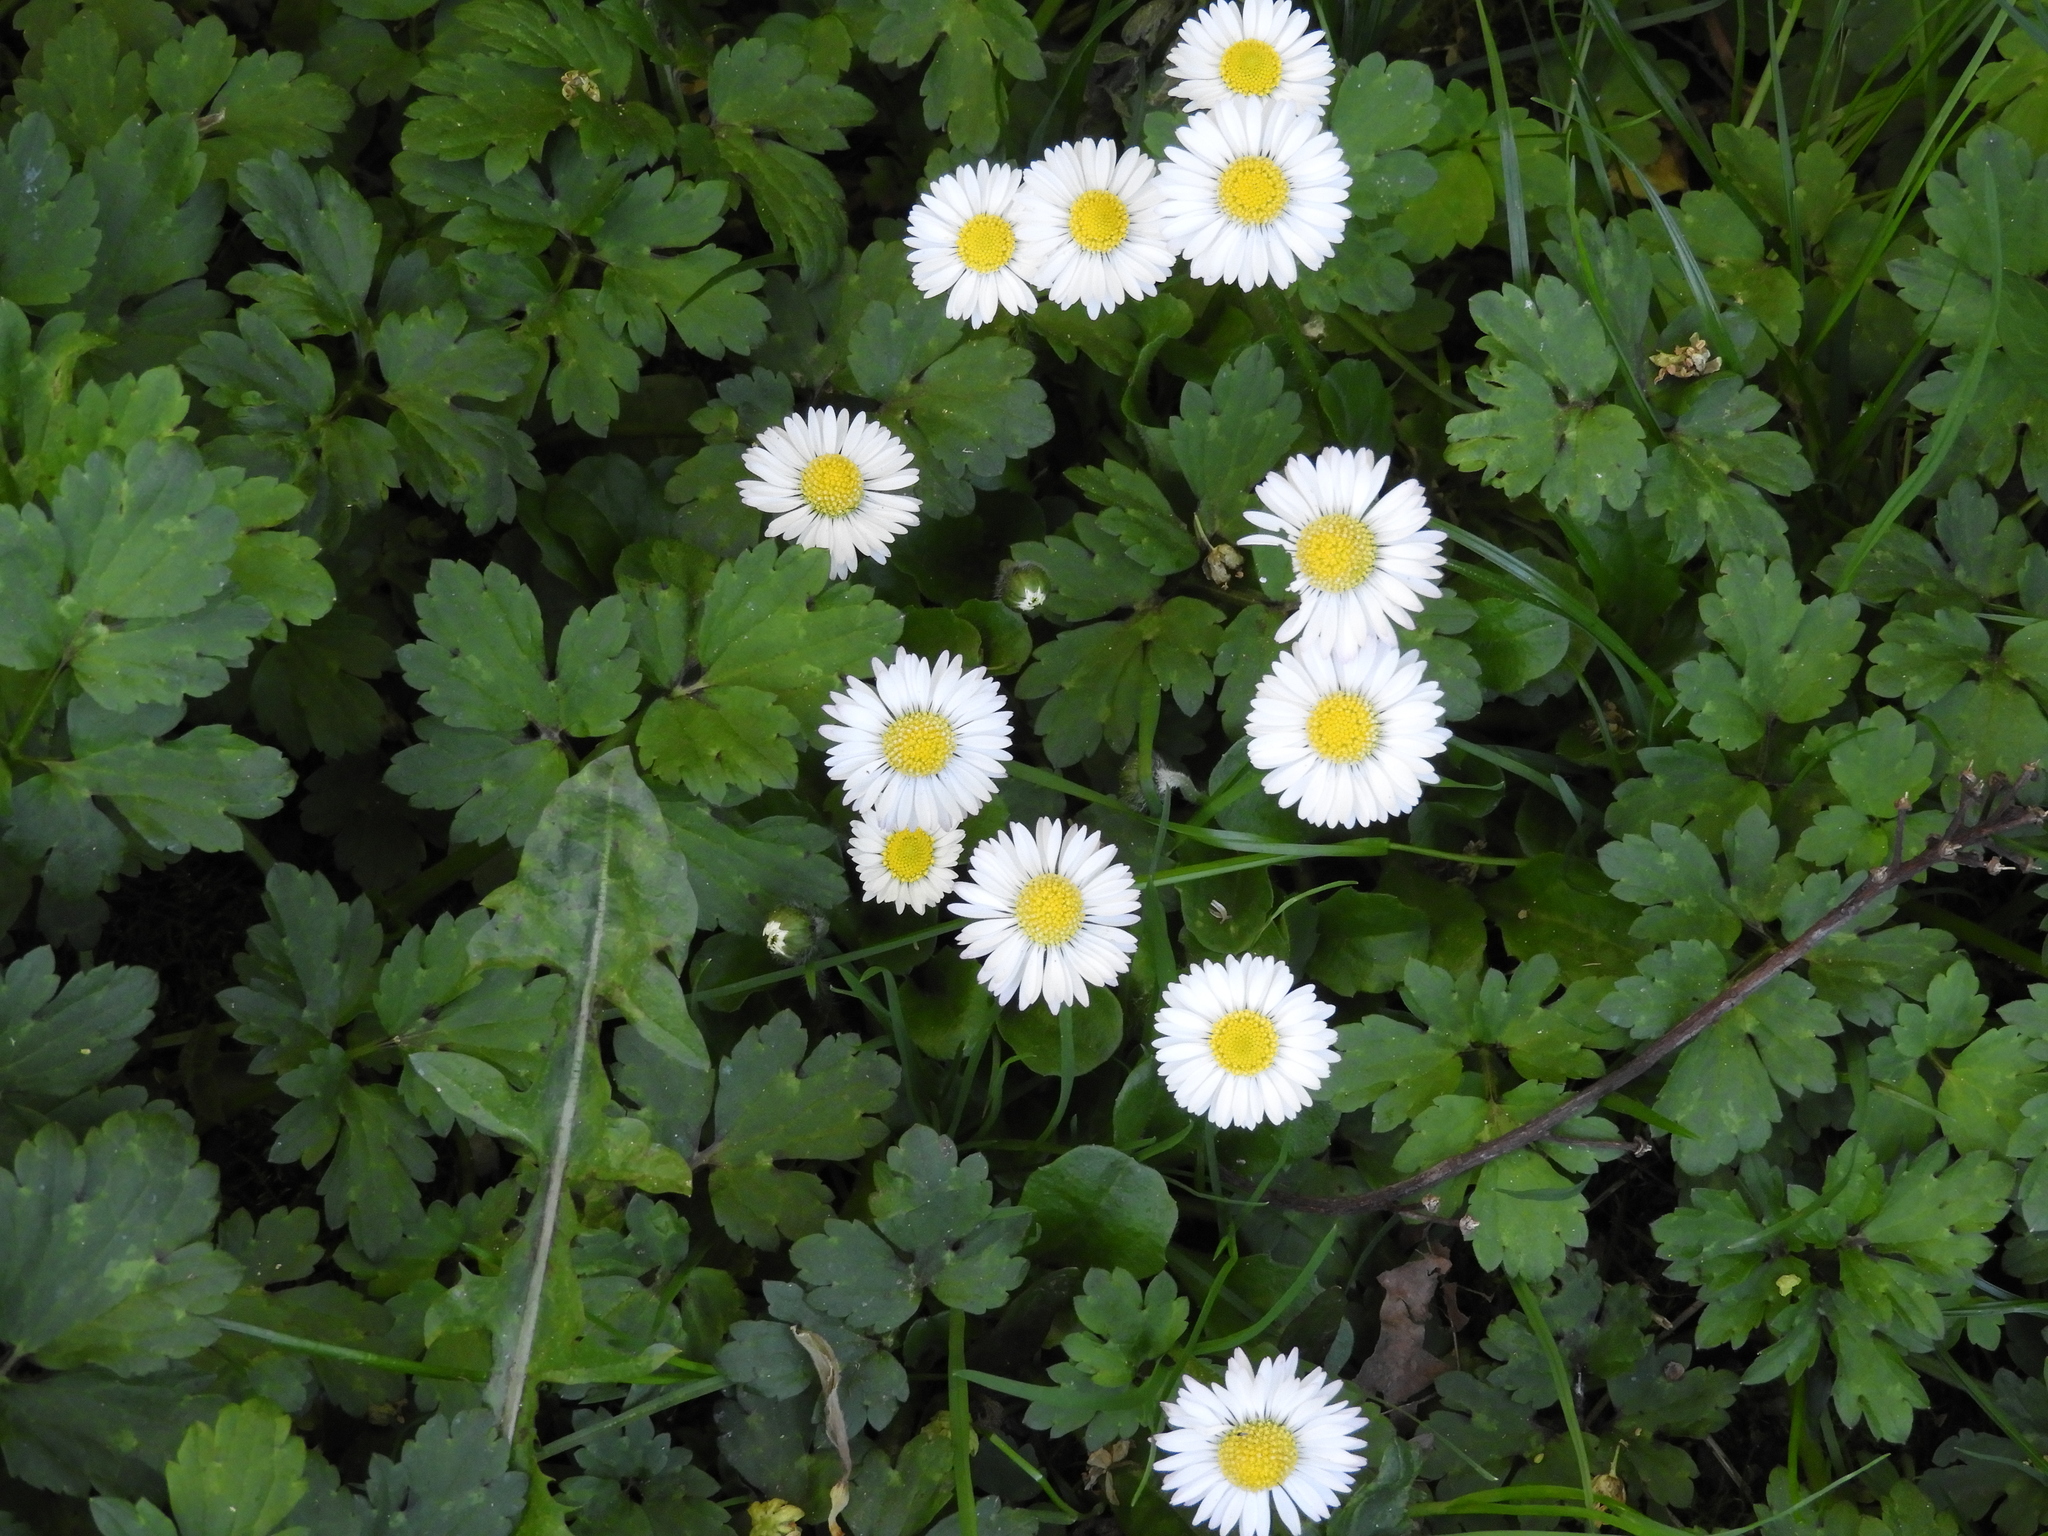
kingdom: Plantae
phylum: Tracheophyta
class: Magnoliopsida
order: Asterales
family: Asteraceae
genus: Bellis
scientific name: Bellis perennis
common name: Lawndaisy
